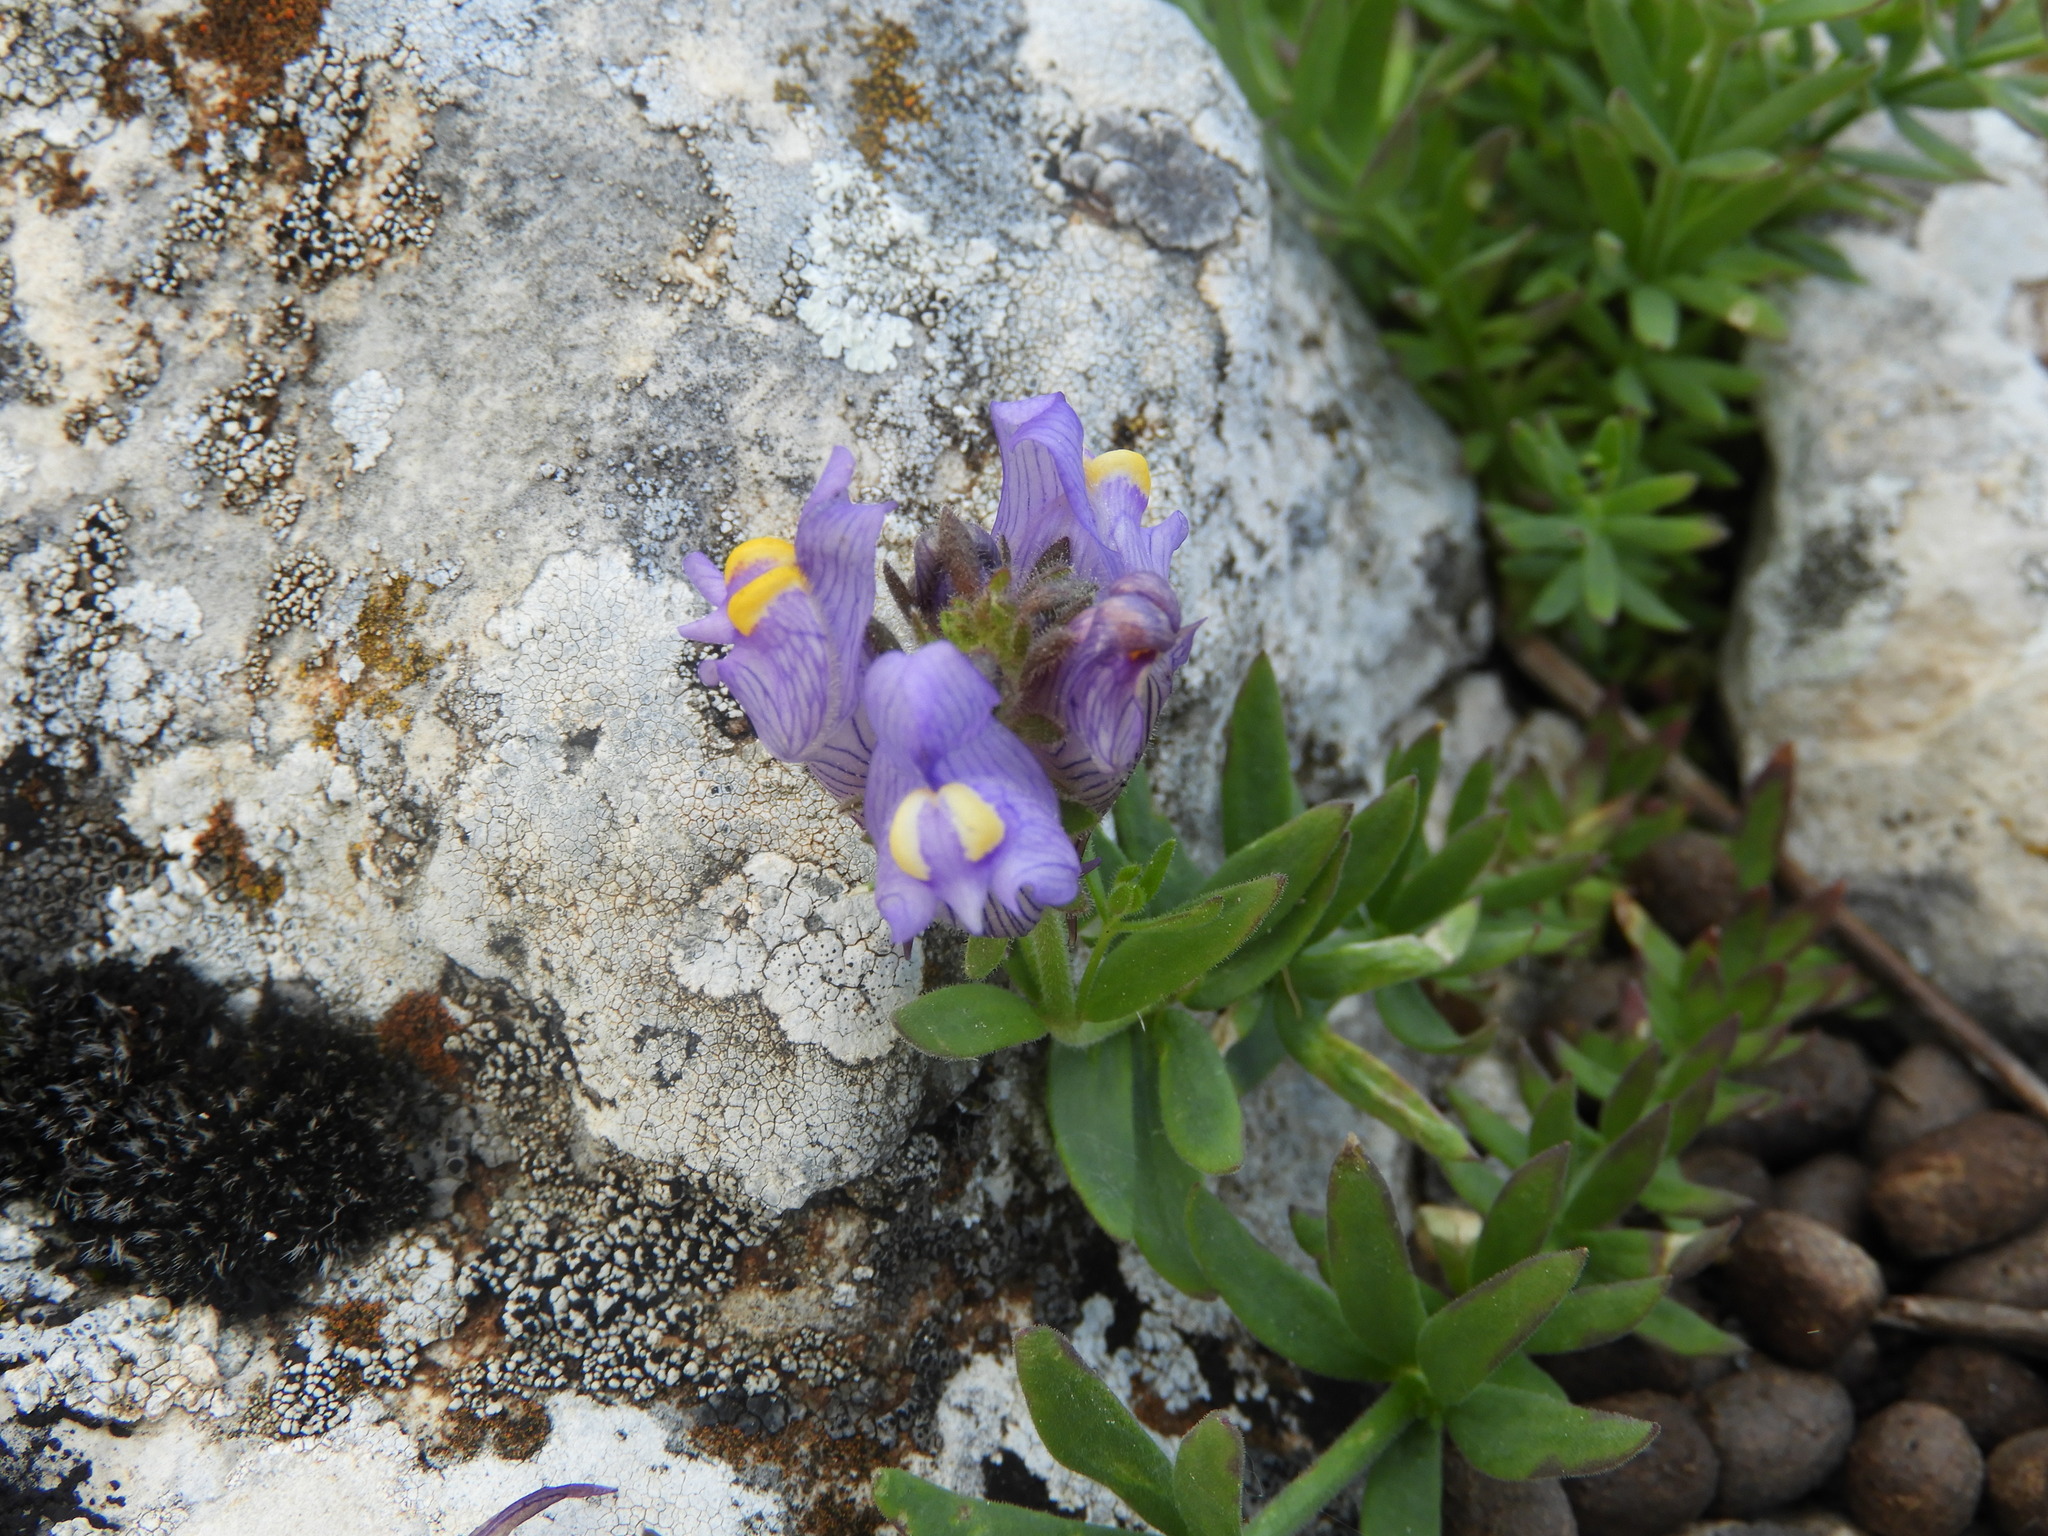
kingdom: Plantae
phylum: Tracheophyta
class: Magnoliopsida
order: Lamiales
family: Plantaginaceae
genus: Linaria
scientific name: Linaria verticillata
